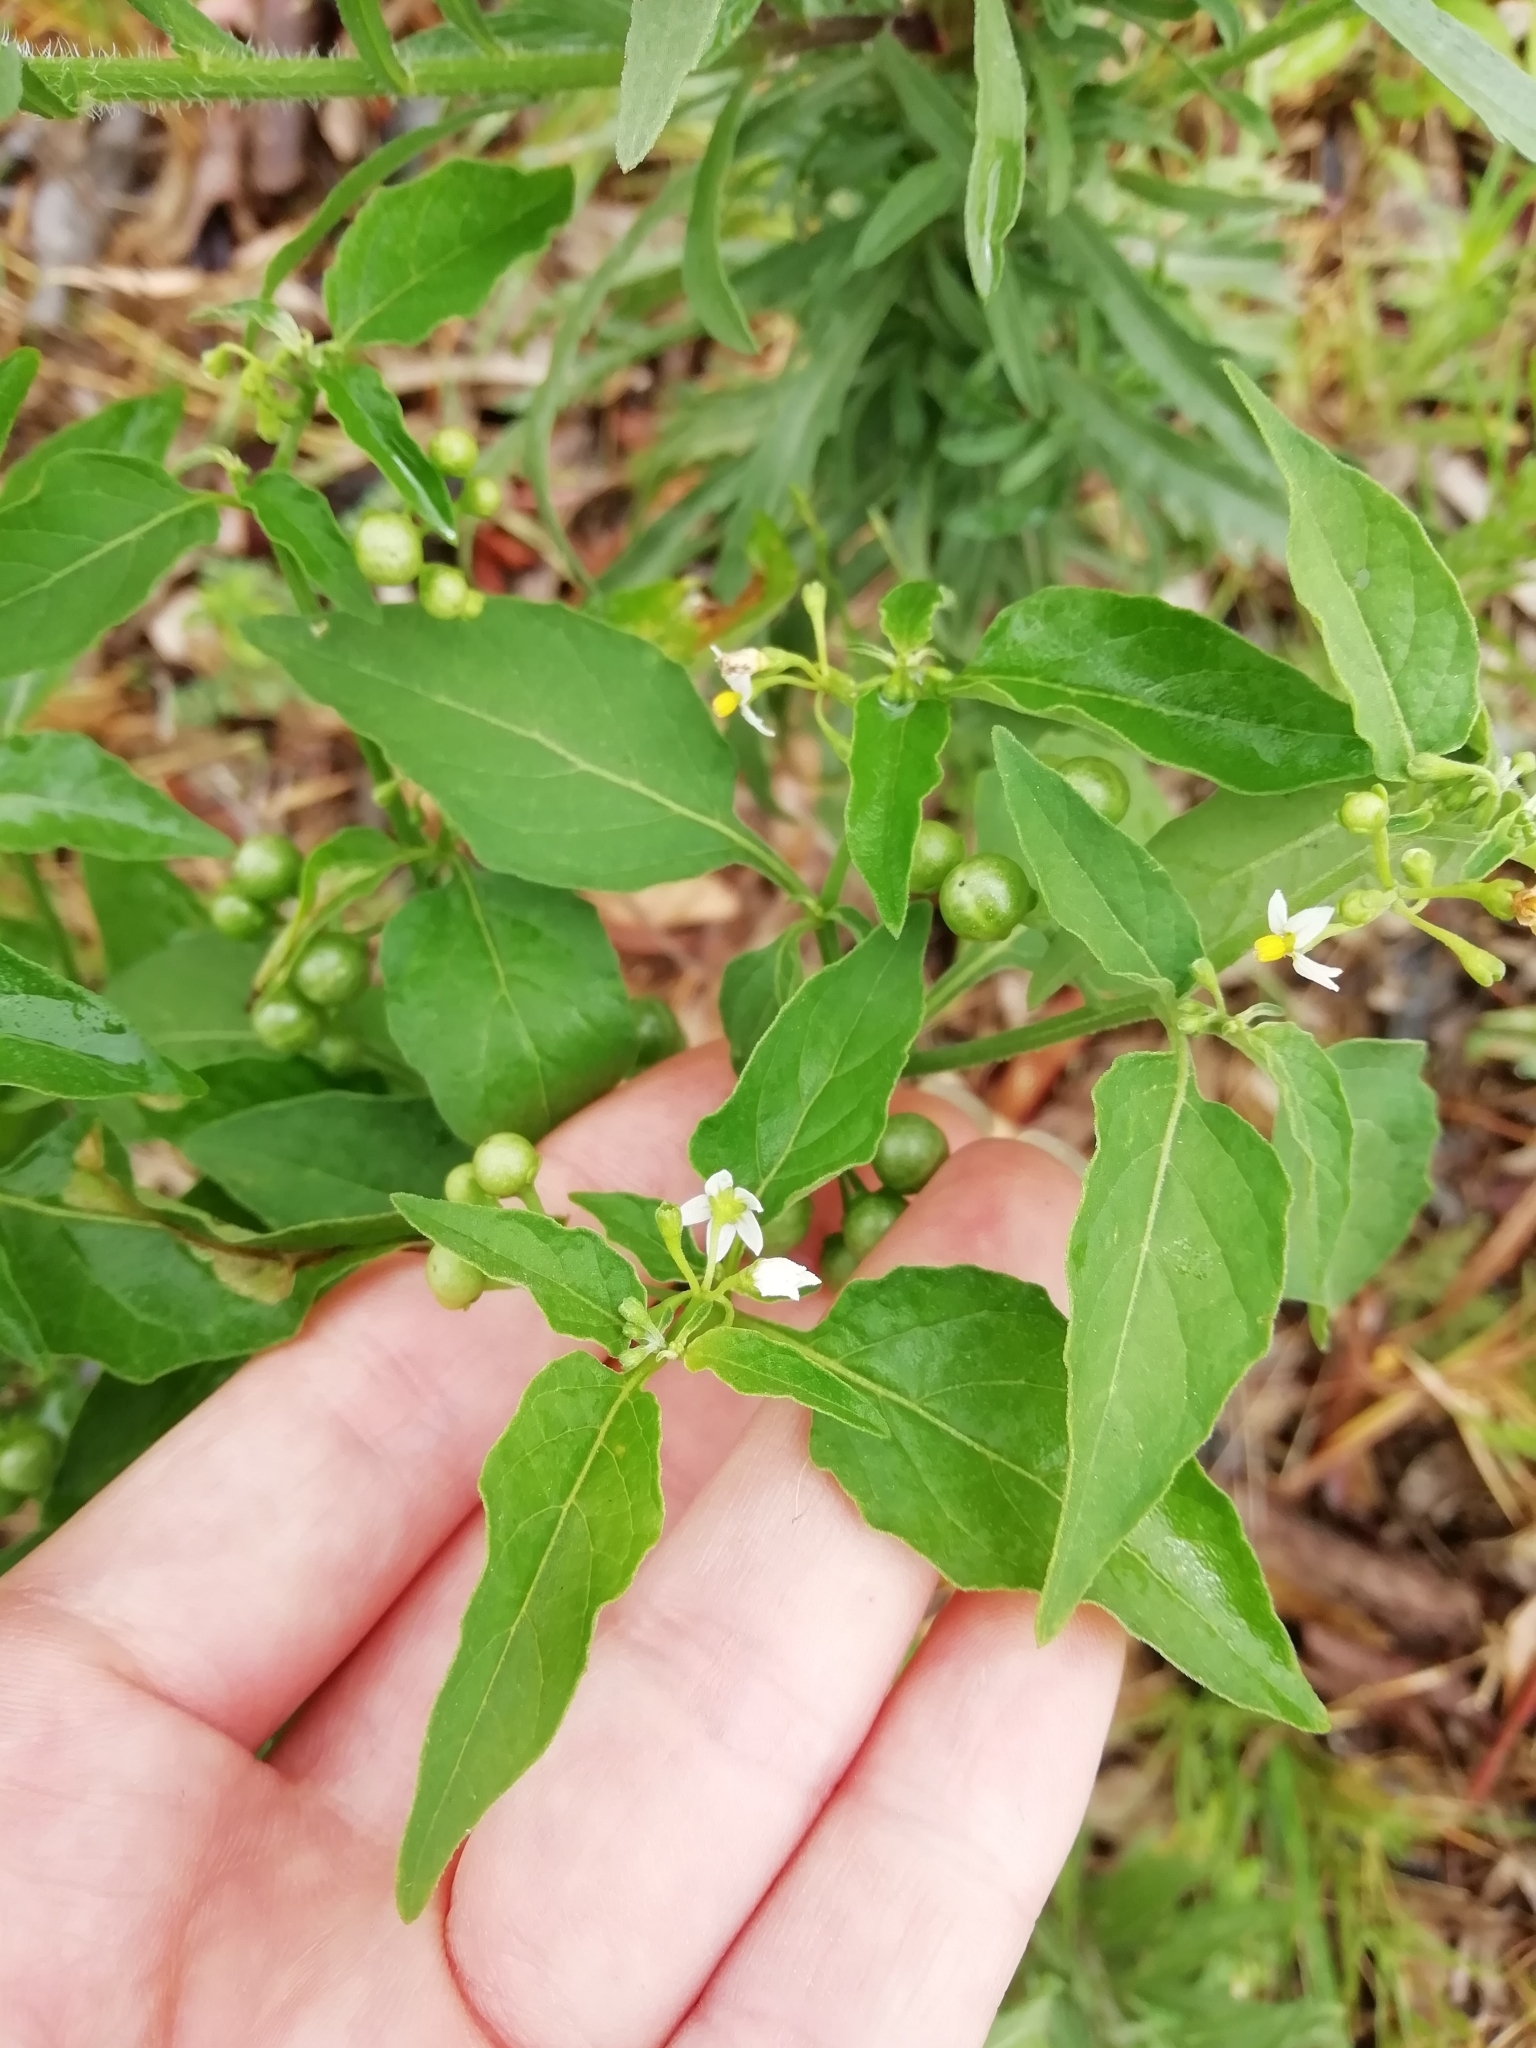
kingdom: Plantae
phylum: Tracheophyta
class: Magnoliopsida
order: Solanales
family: Solanaceae
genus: Solanum
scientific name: Solanum americanum
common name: American black nightshade
